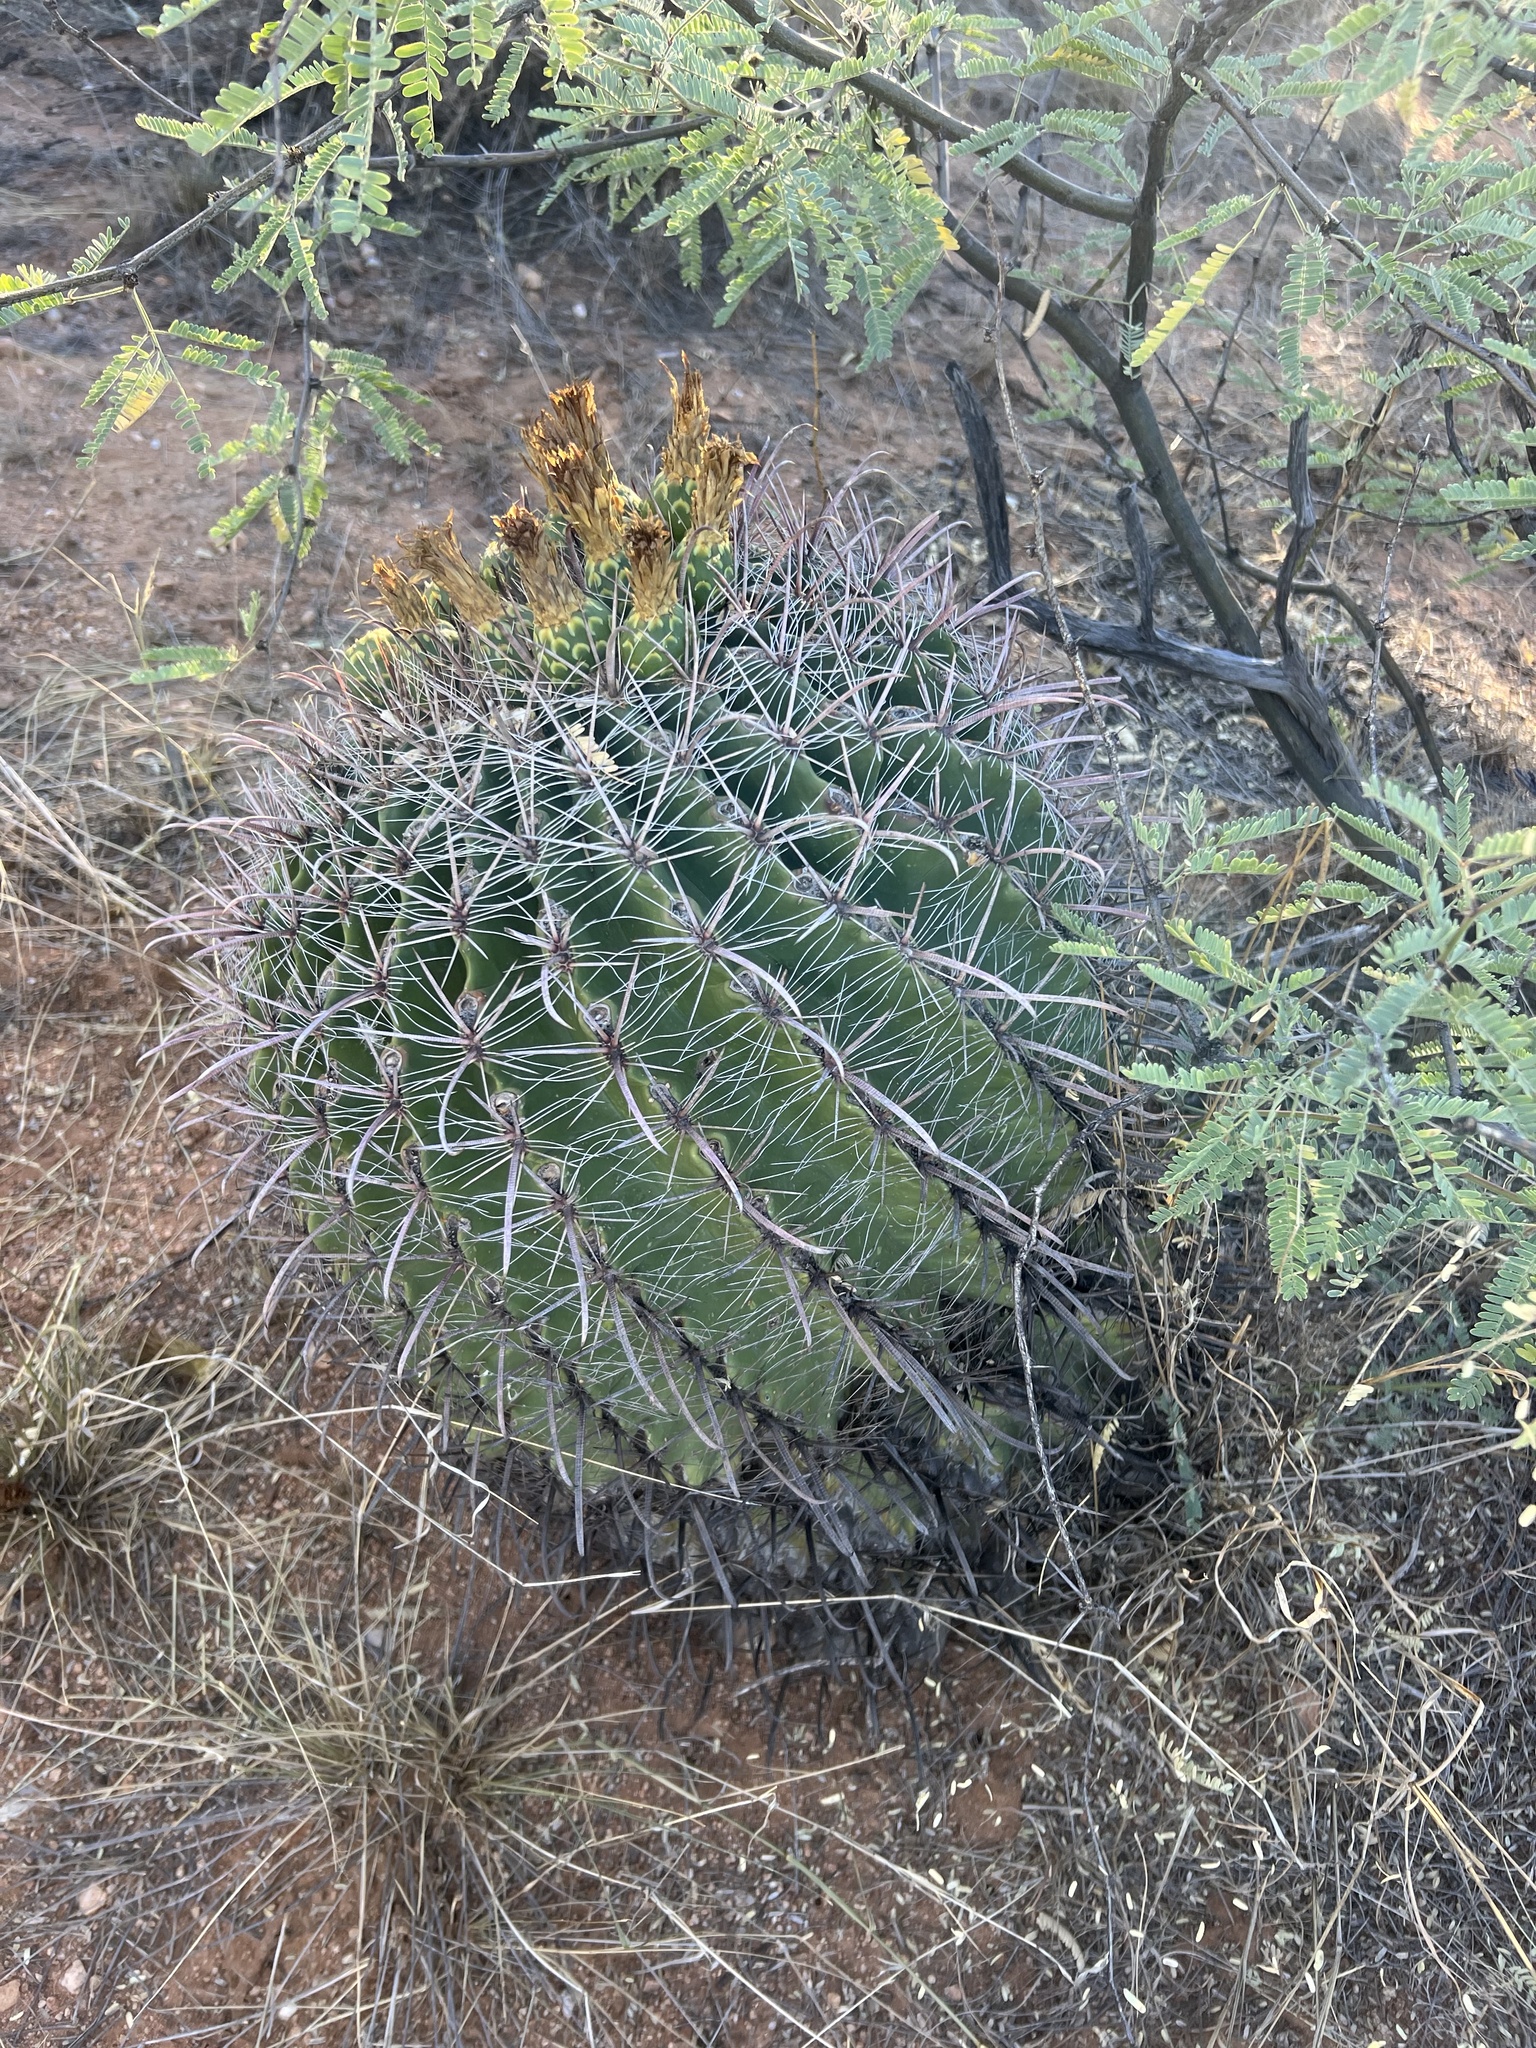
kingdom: Plantae
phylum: Tracheophyta
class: Magnoliopsida
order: Caryophyllales
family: Cactaceae
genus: Ferocactus
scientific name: Ferocactus wislizeni
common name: Candy barrel cactus
